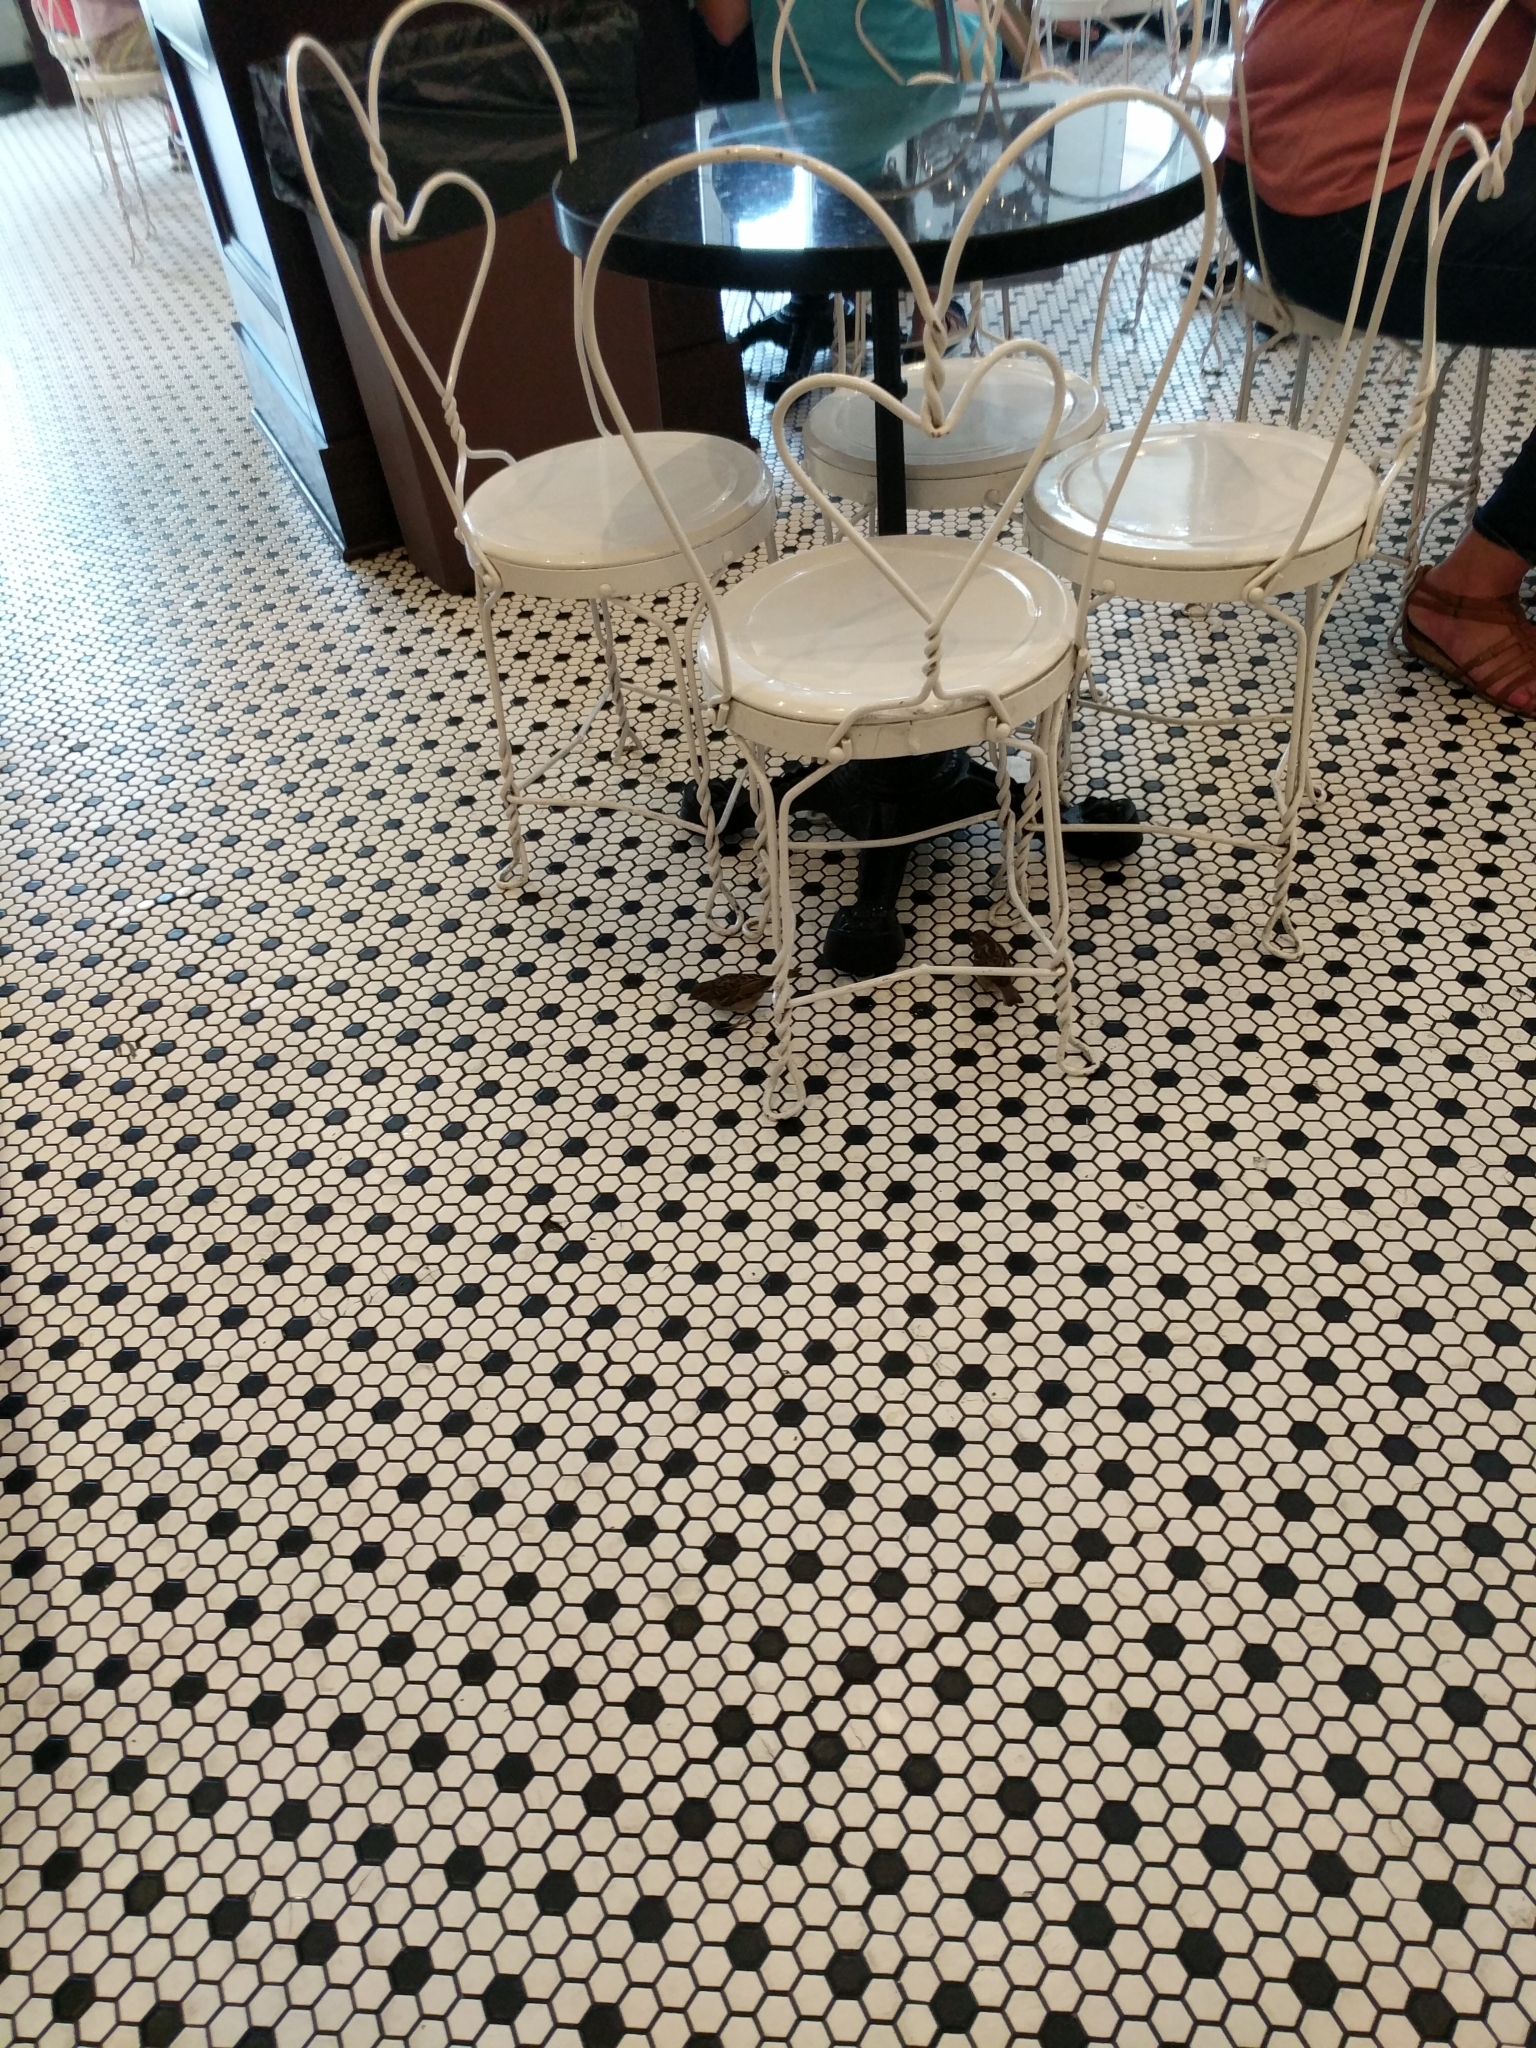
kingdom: Animalia
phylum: Chordata
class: Aves
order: Passeriformes
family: Passeridae
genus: Passer
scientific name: Passer domesticus
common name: House sparrow
